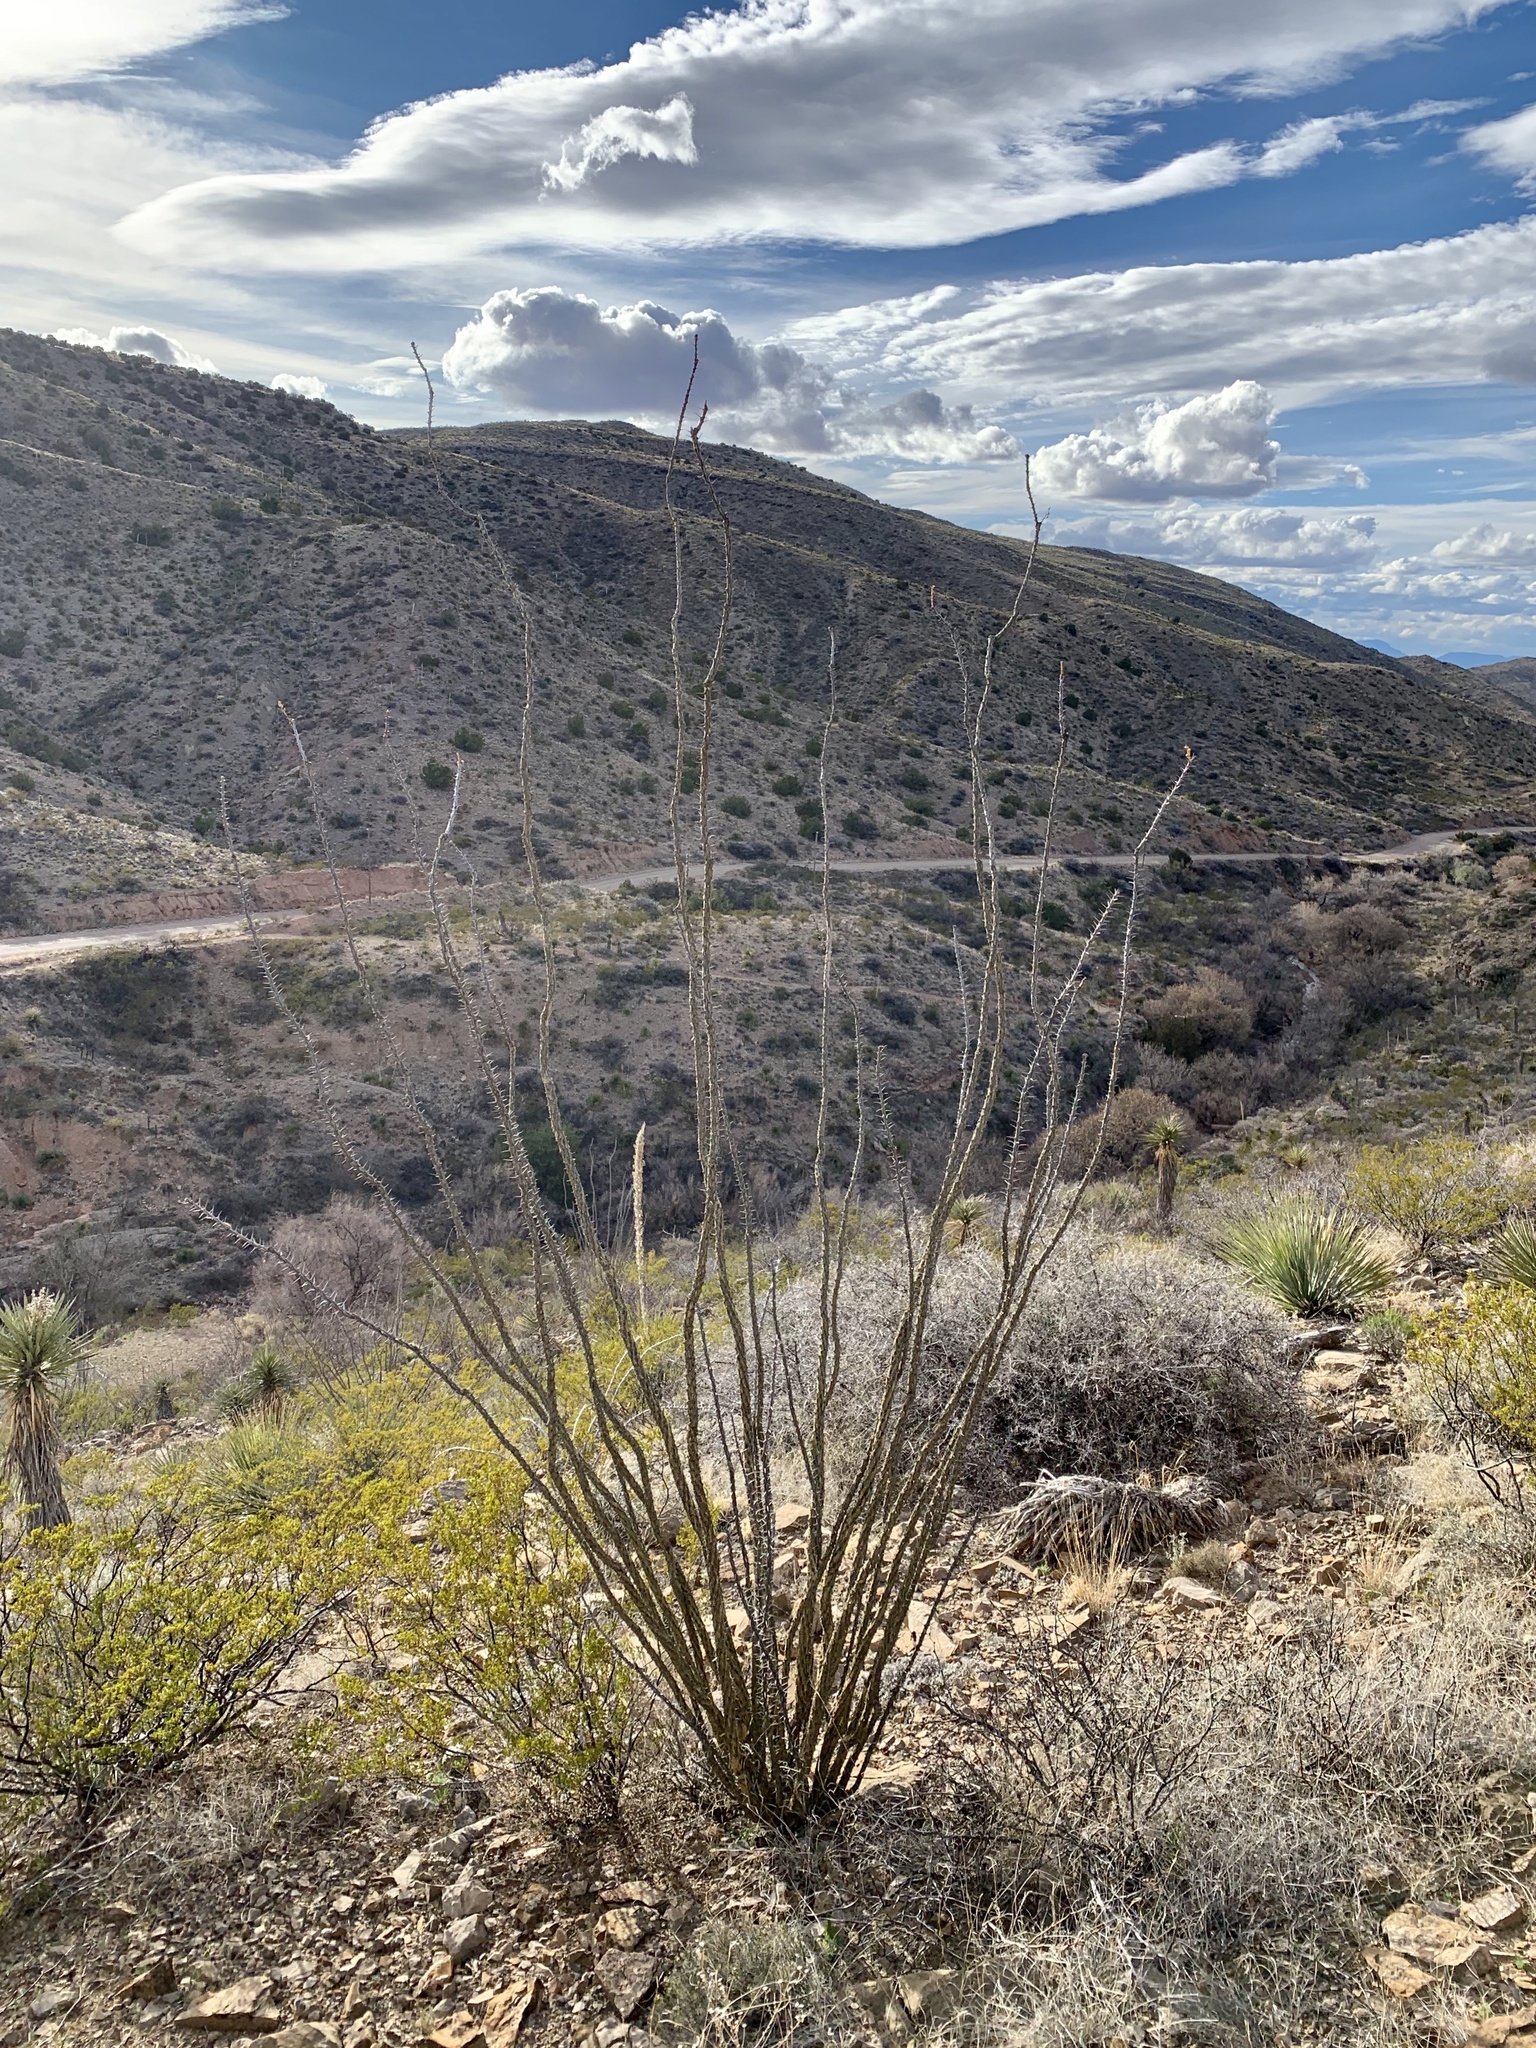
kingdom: Plantae
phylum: Tracheophyta
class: Magnoliopsida
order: Ericales
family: Fouquieriaceae
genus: Fouquieria
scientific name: Fouquieria splendens
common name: Vine-cactus
